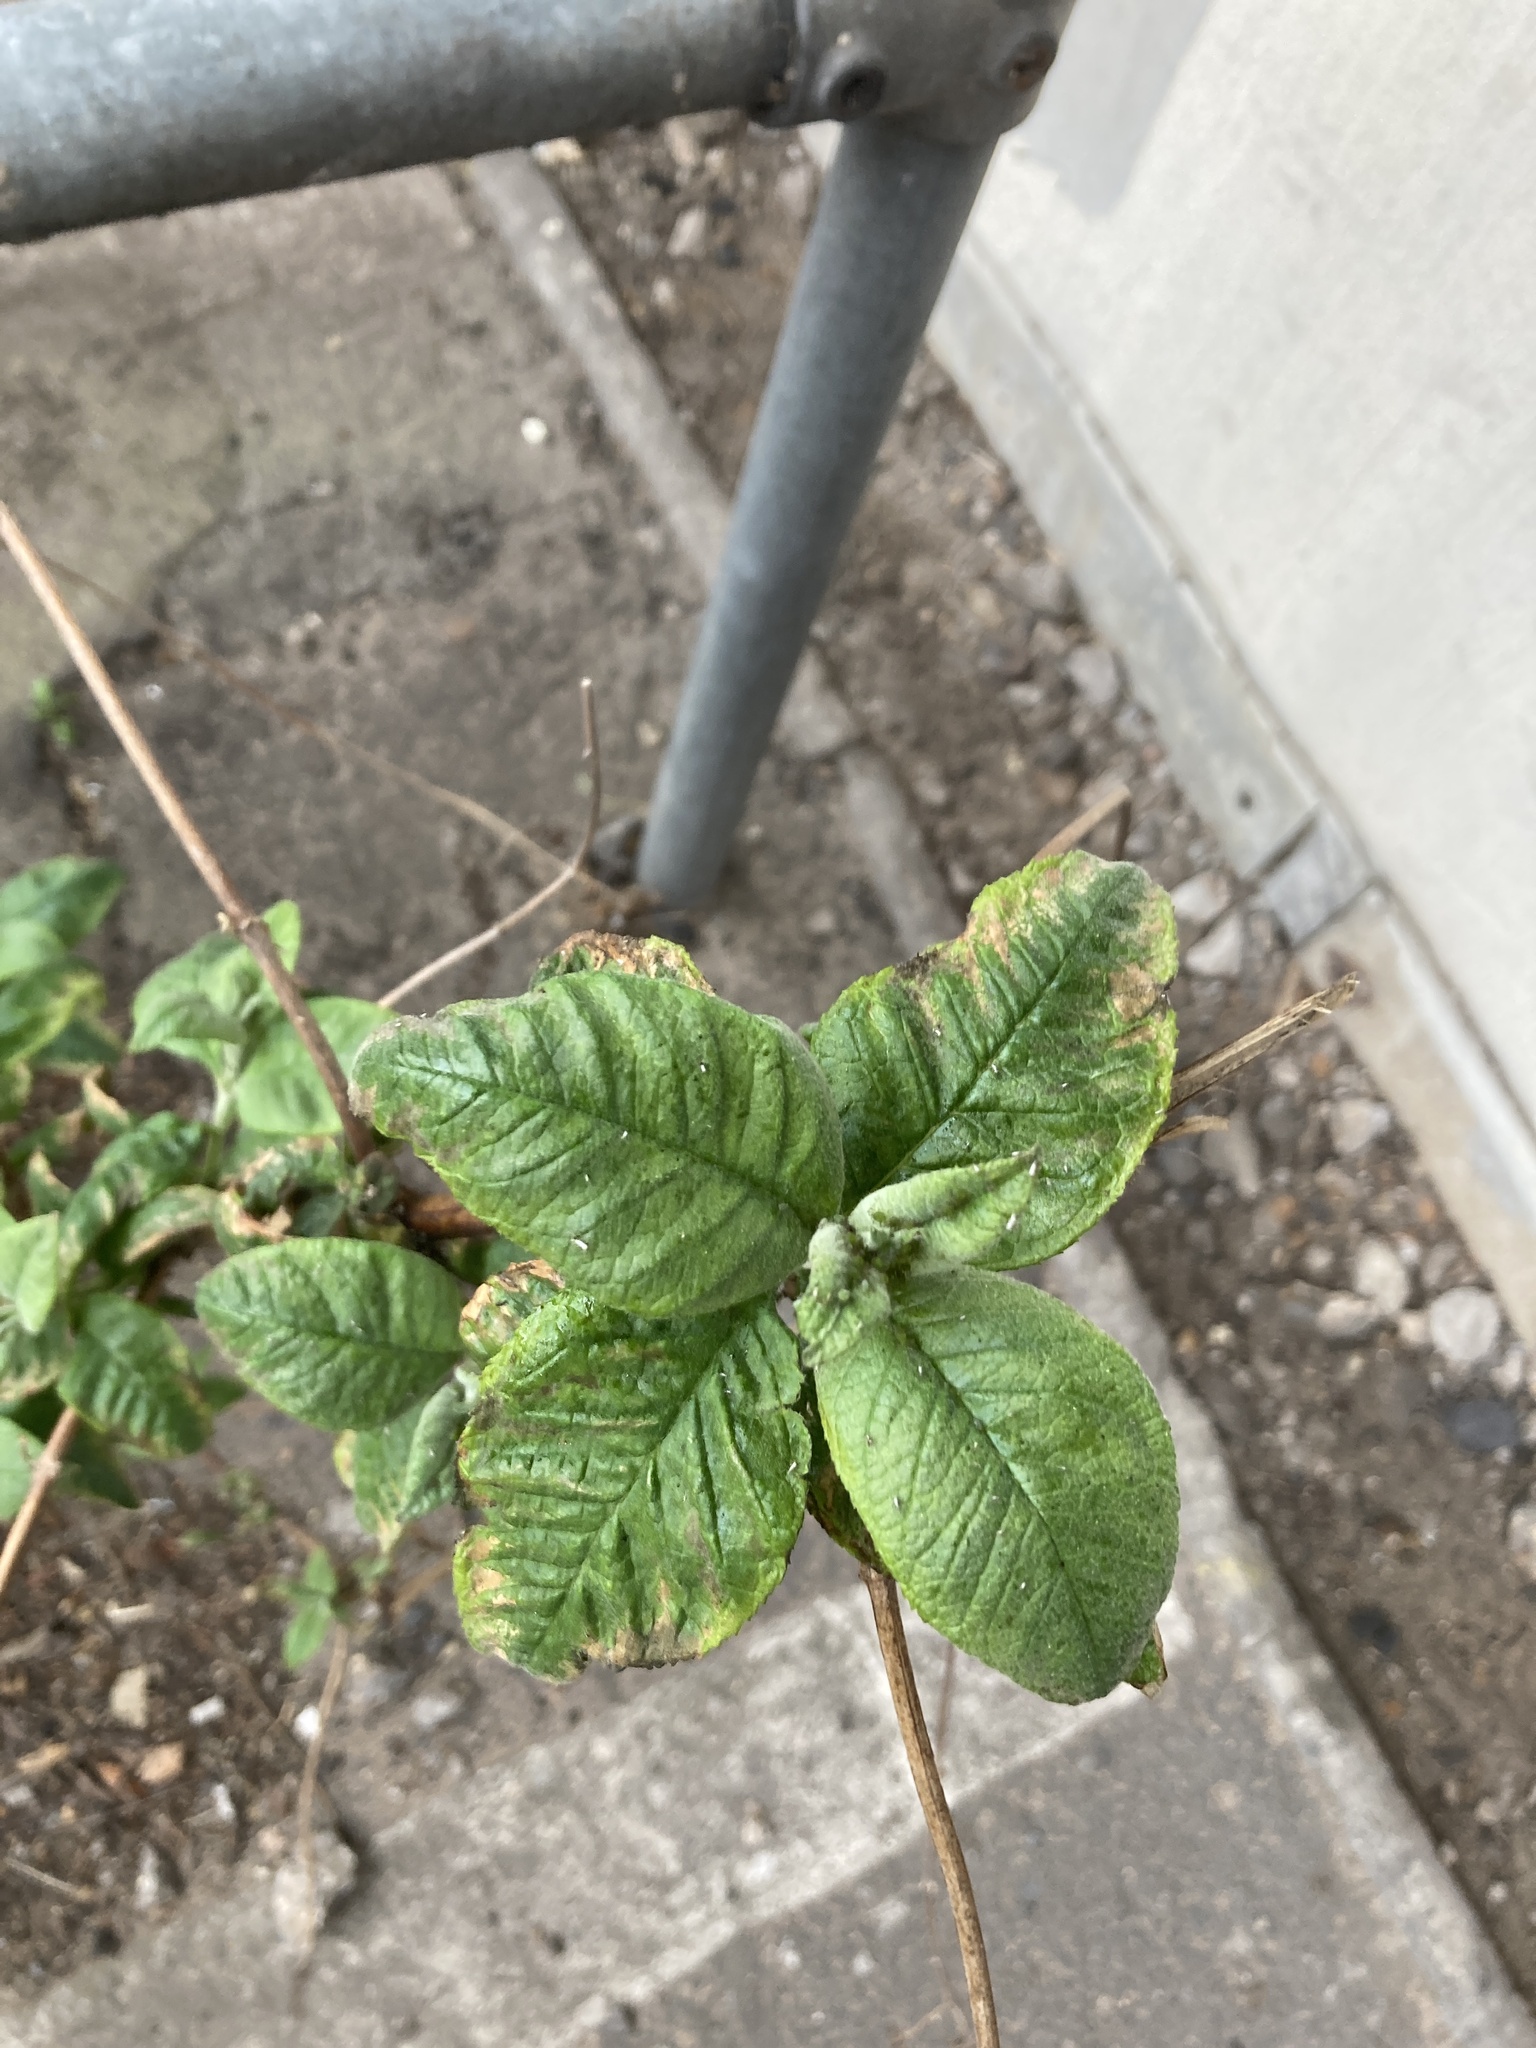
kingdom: Plantae
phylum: Tracheophyta
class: Magnoliopsida
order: Lamiales
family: Scrophulariaceae
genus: Buddleja
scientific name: Buddleja davidii
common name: Butterfly-bush
